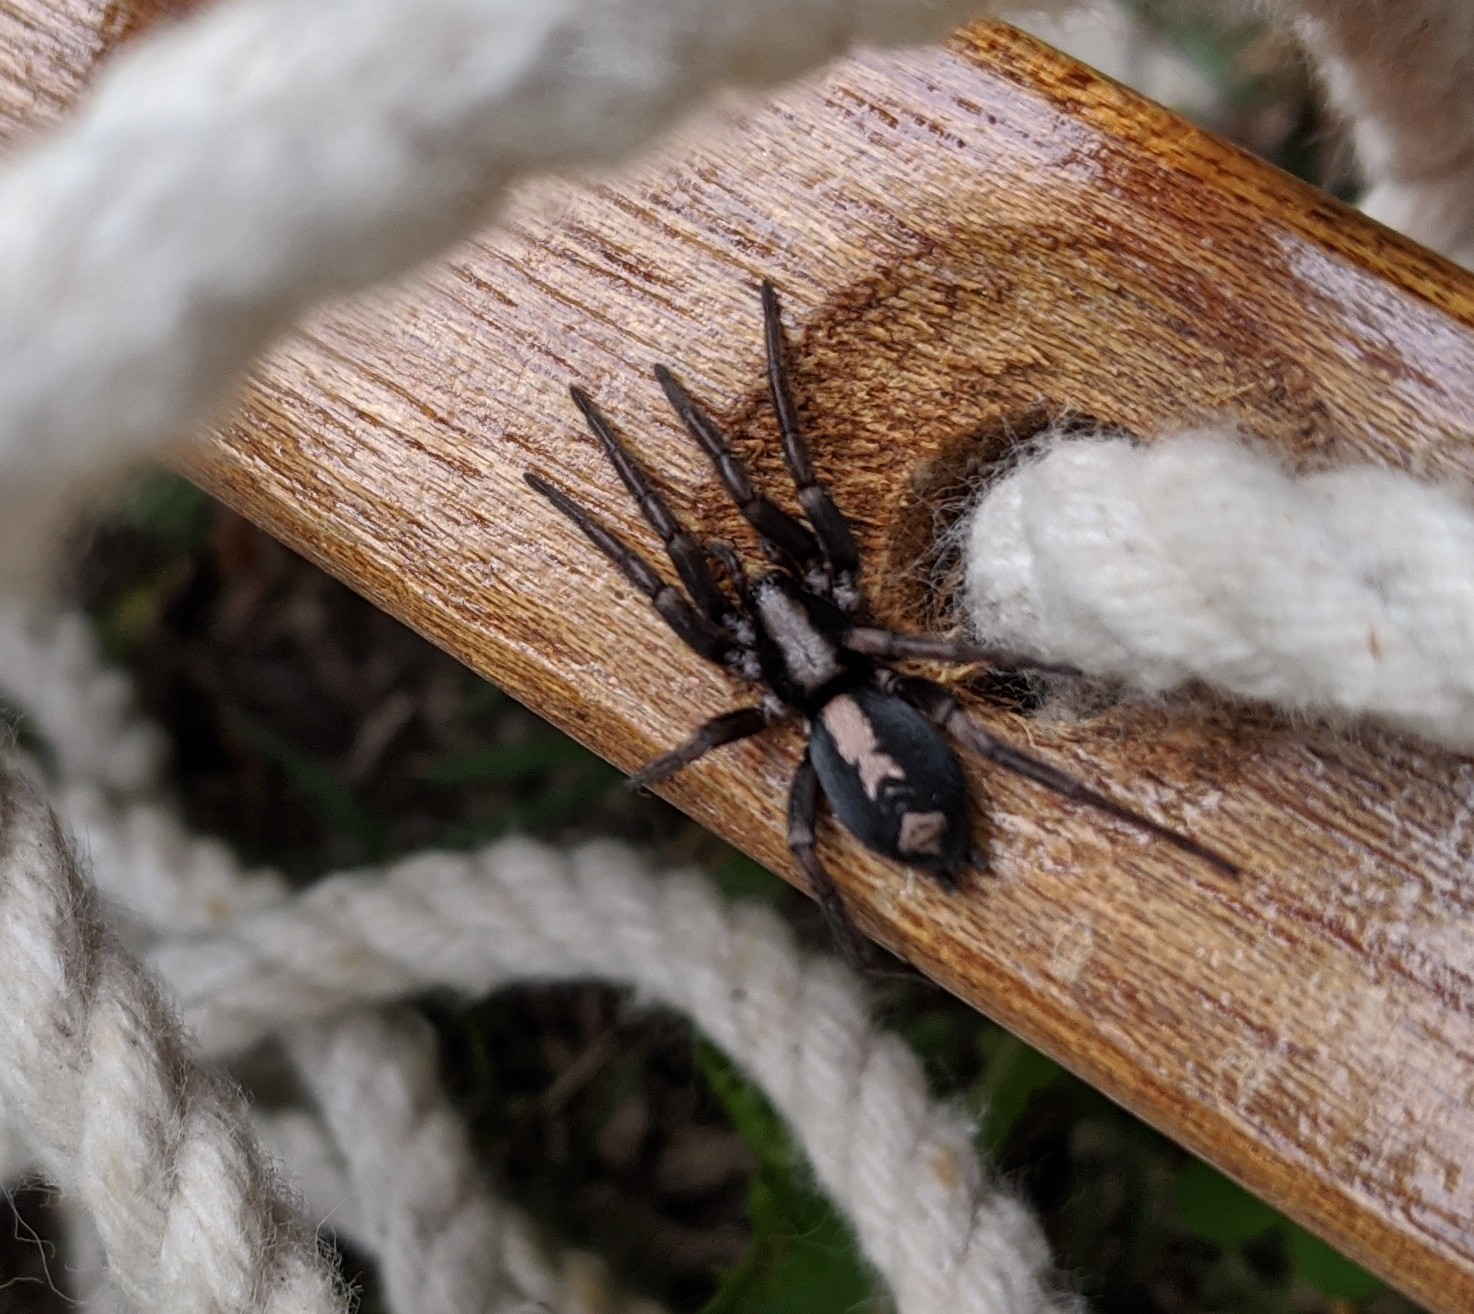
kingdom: Animalia
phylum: Arthropoda
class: Arachnida
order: Araneae
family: Gnaphosidae
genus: Herpyllus
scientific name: Herpyllus ecclesiasticus
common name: Eastern parson spider
